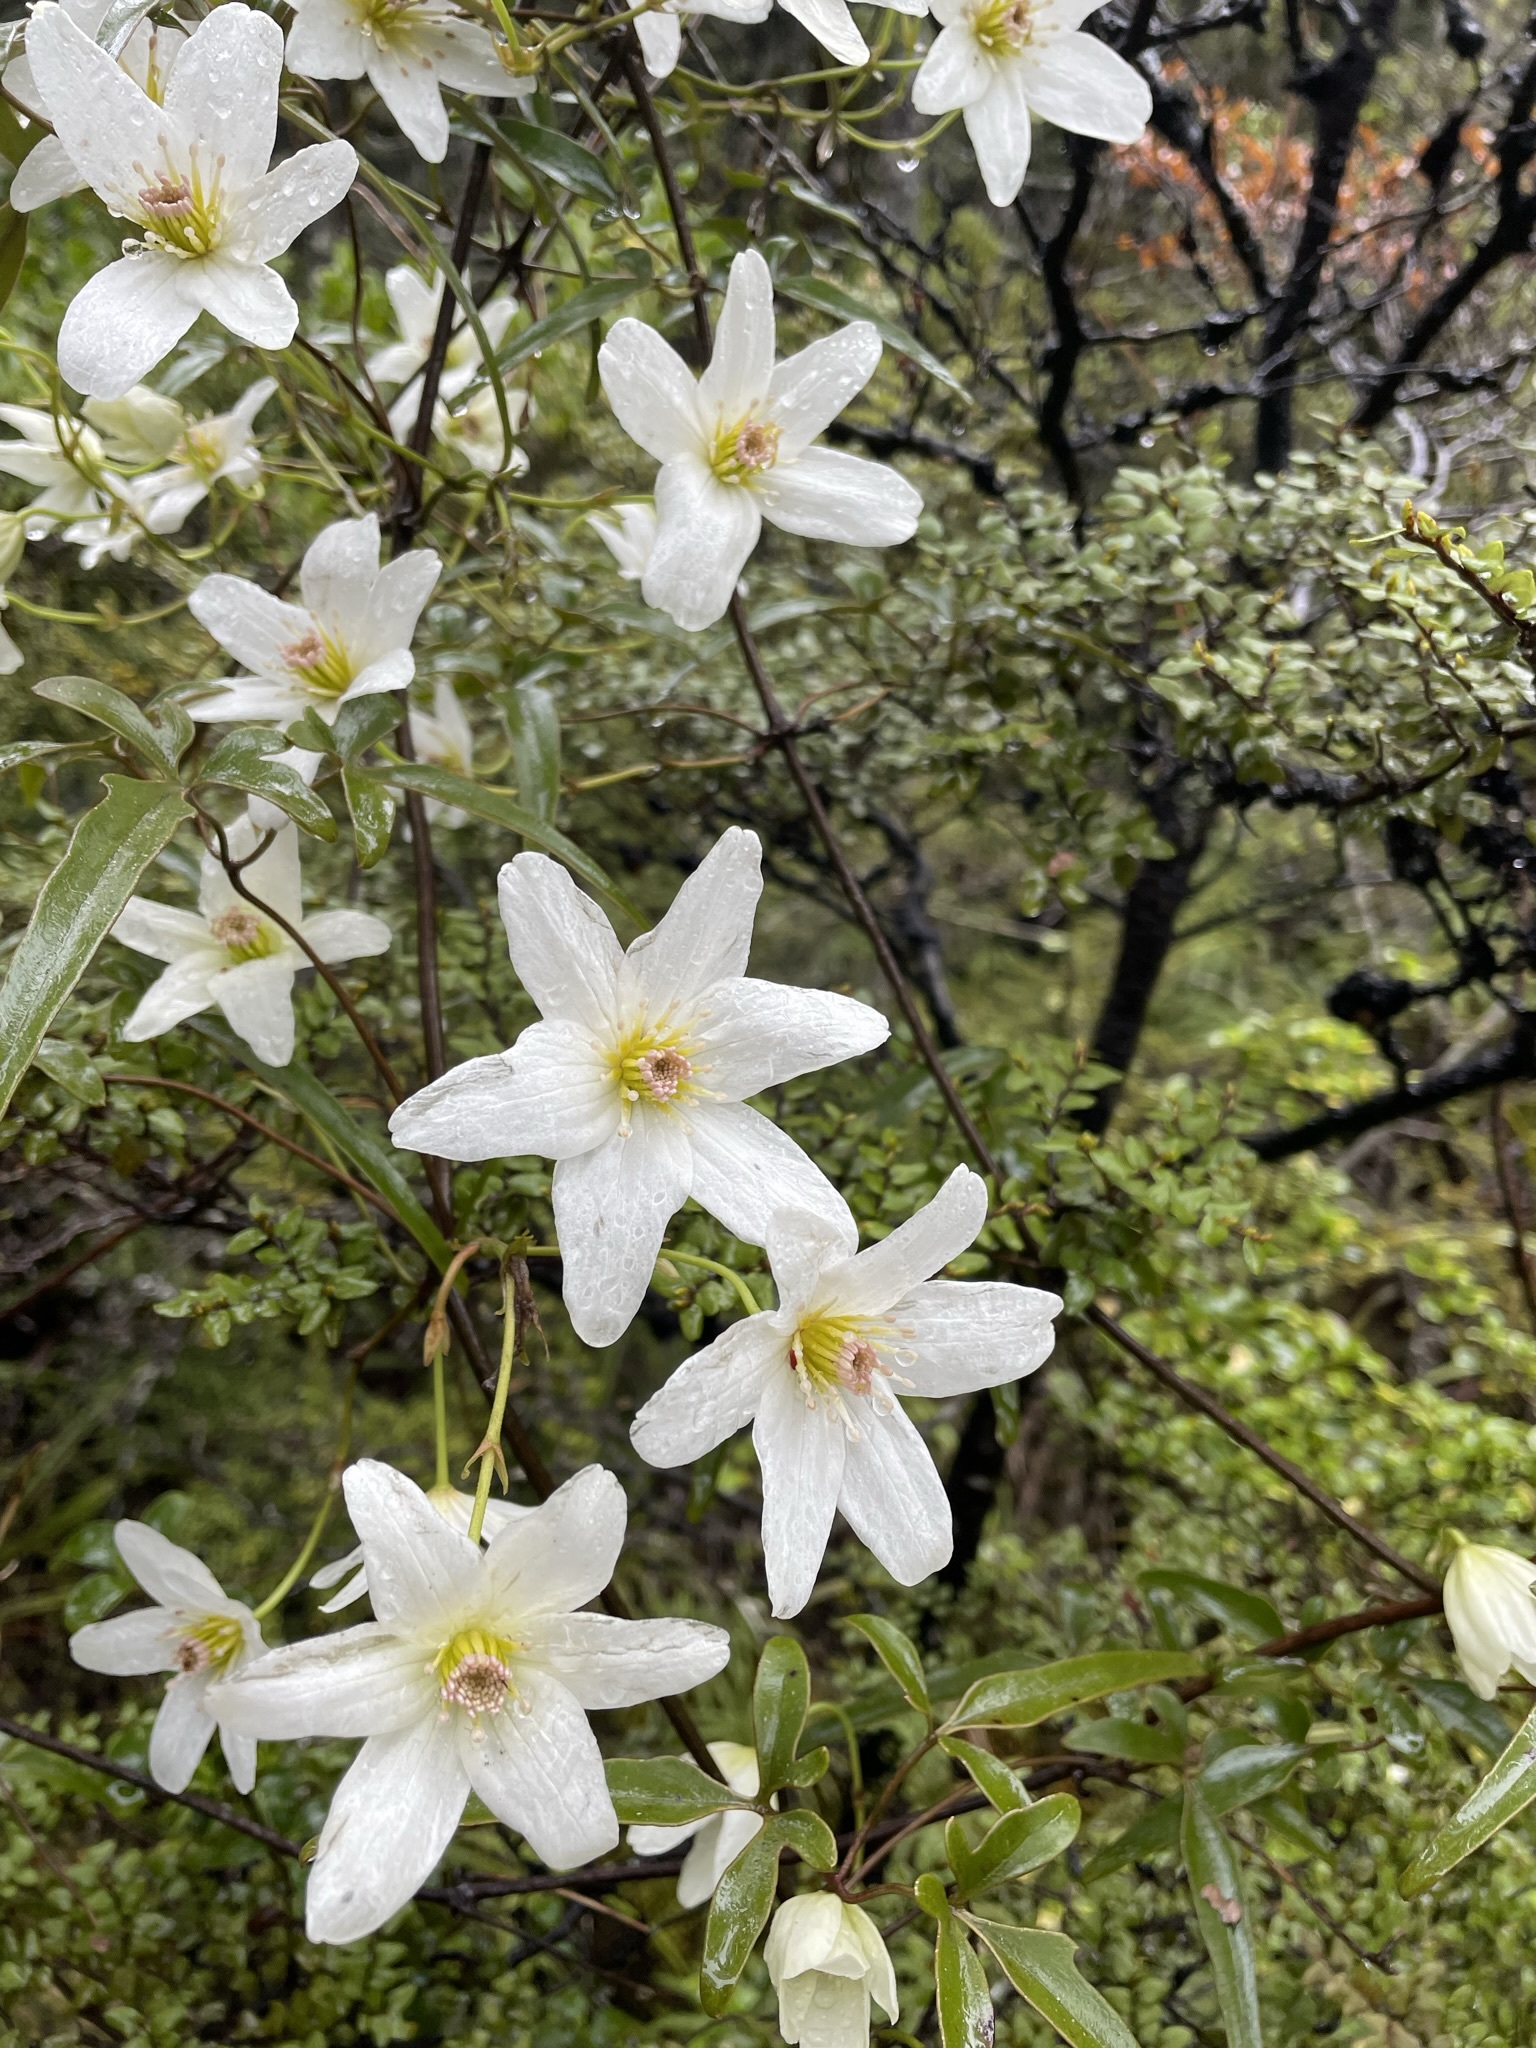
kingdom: Plantae
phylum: Tracheophyta
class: Magnoliopsida
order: Ranunculales
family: Ranunculaceae
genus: Clematis
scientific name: Clematis paniculata
